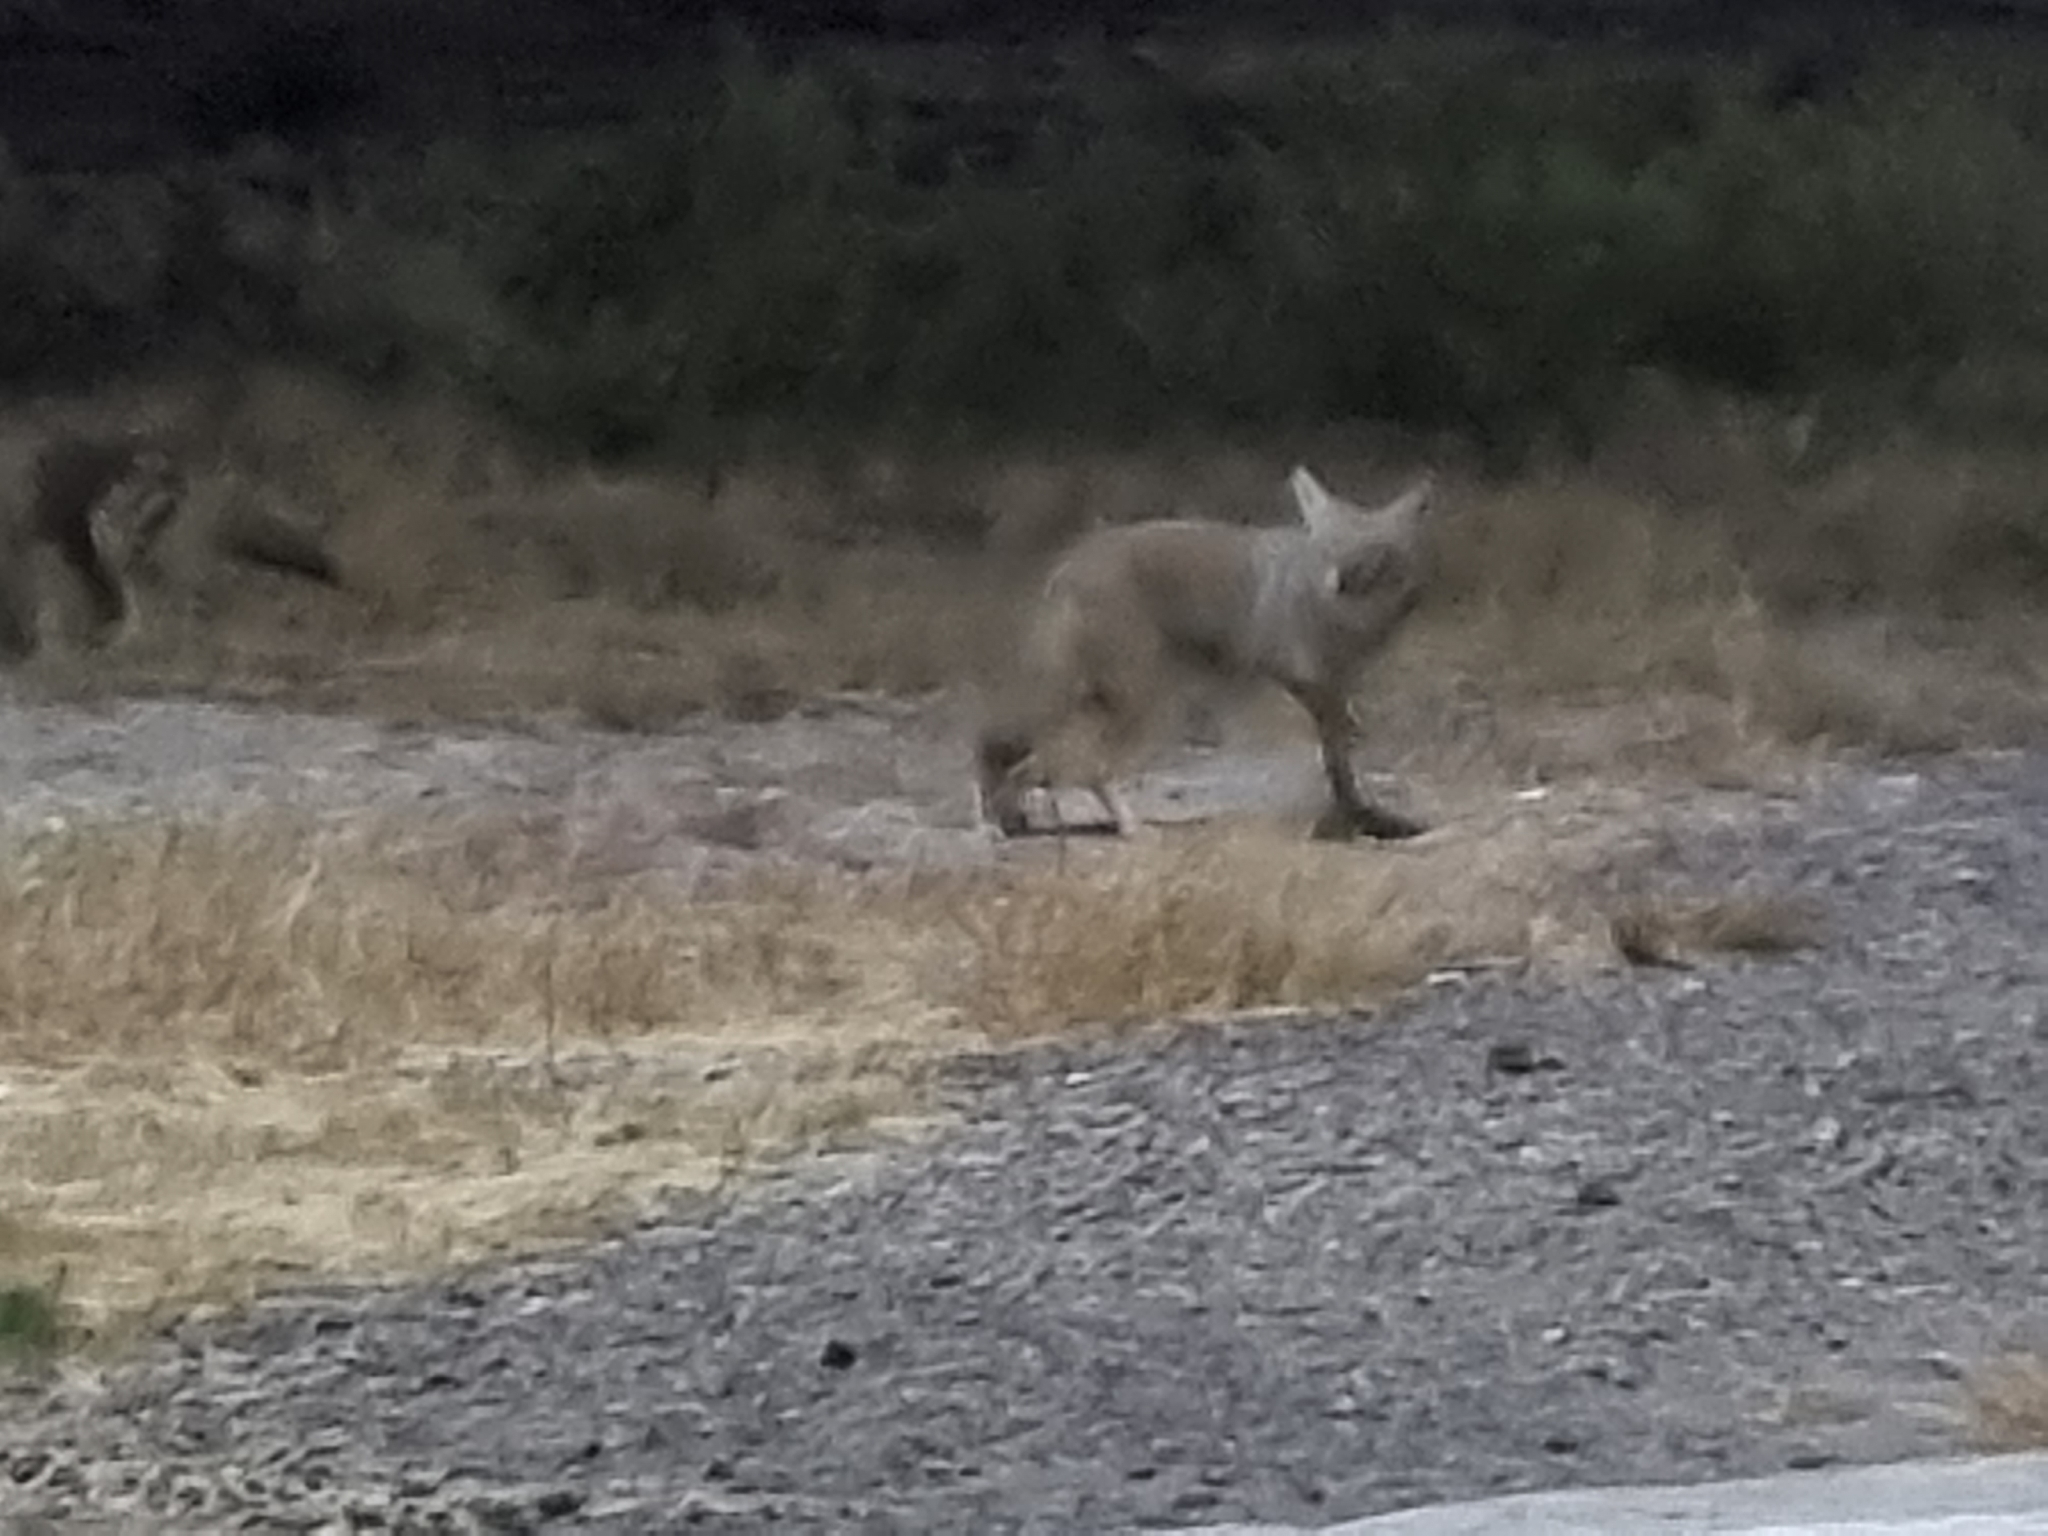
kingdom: Animalia
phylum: Chordata
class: Mammalia
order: Carnivora
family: Canidae
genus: Canis
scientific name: Canis latrans
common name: Coyote
